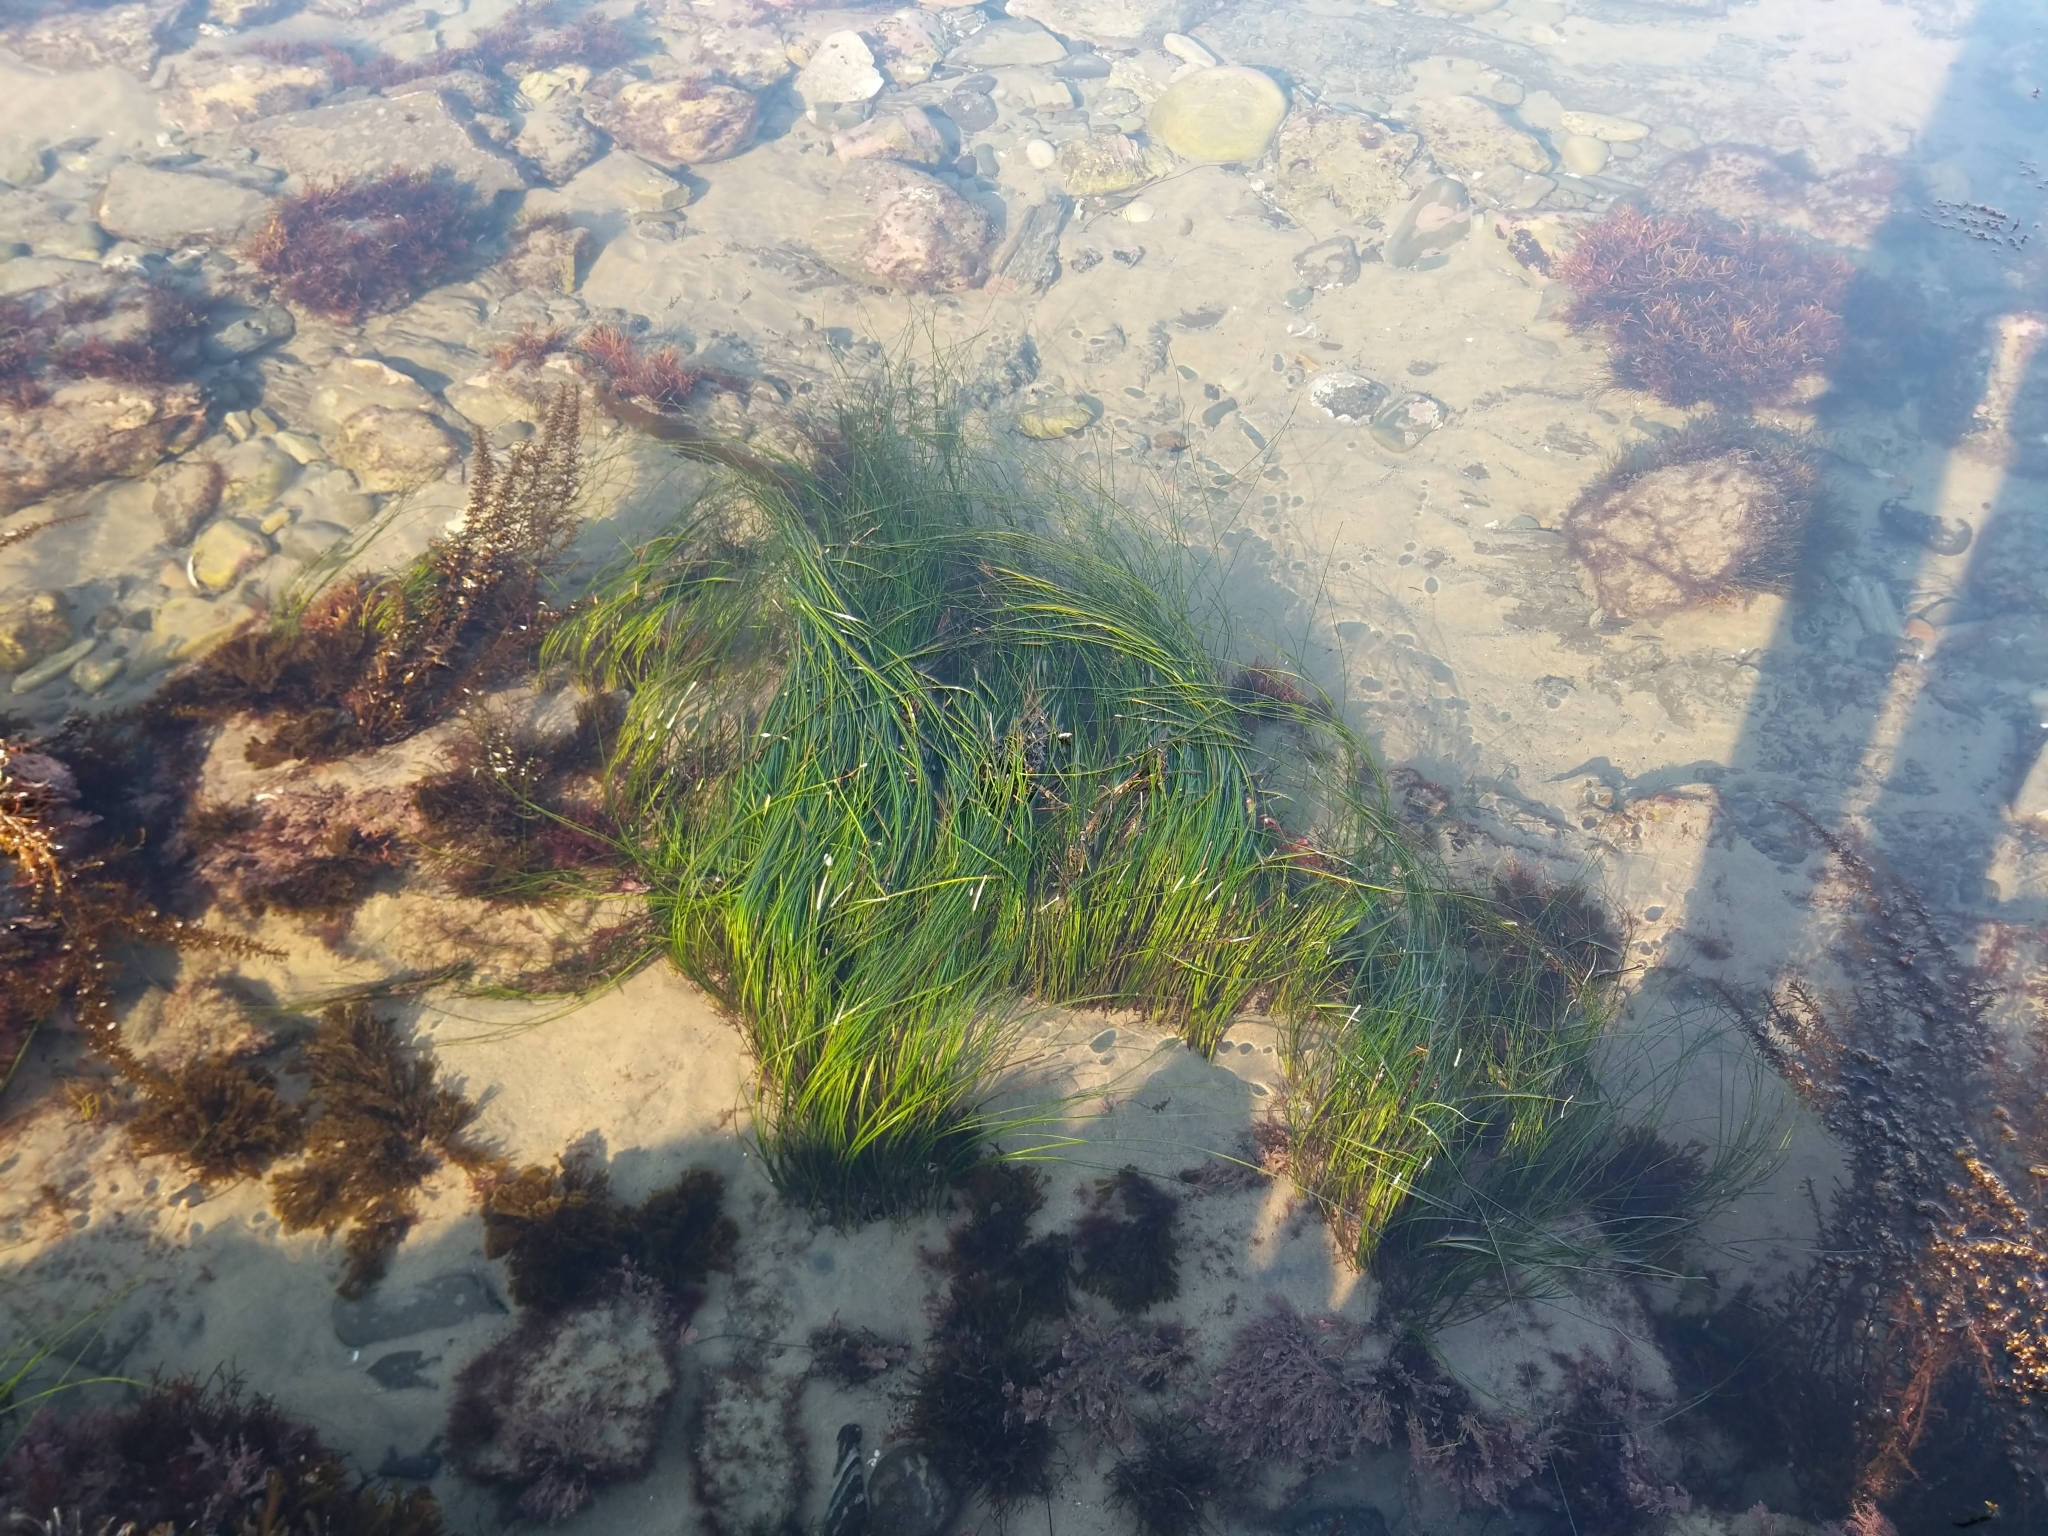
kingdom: Plantae
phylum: Tracheophyta
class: Liliopsida
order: Alismatales
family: Zosteraceae
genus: Phyllospadix
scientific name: Phyllospadix torreyi
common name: Surfgrass
